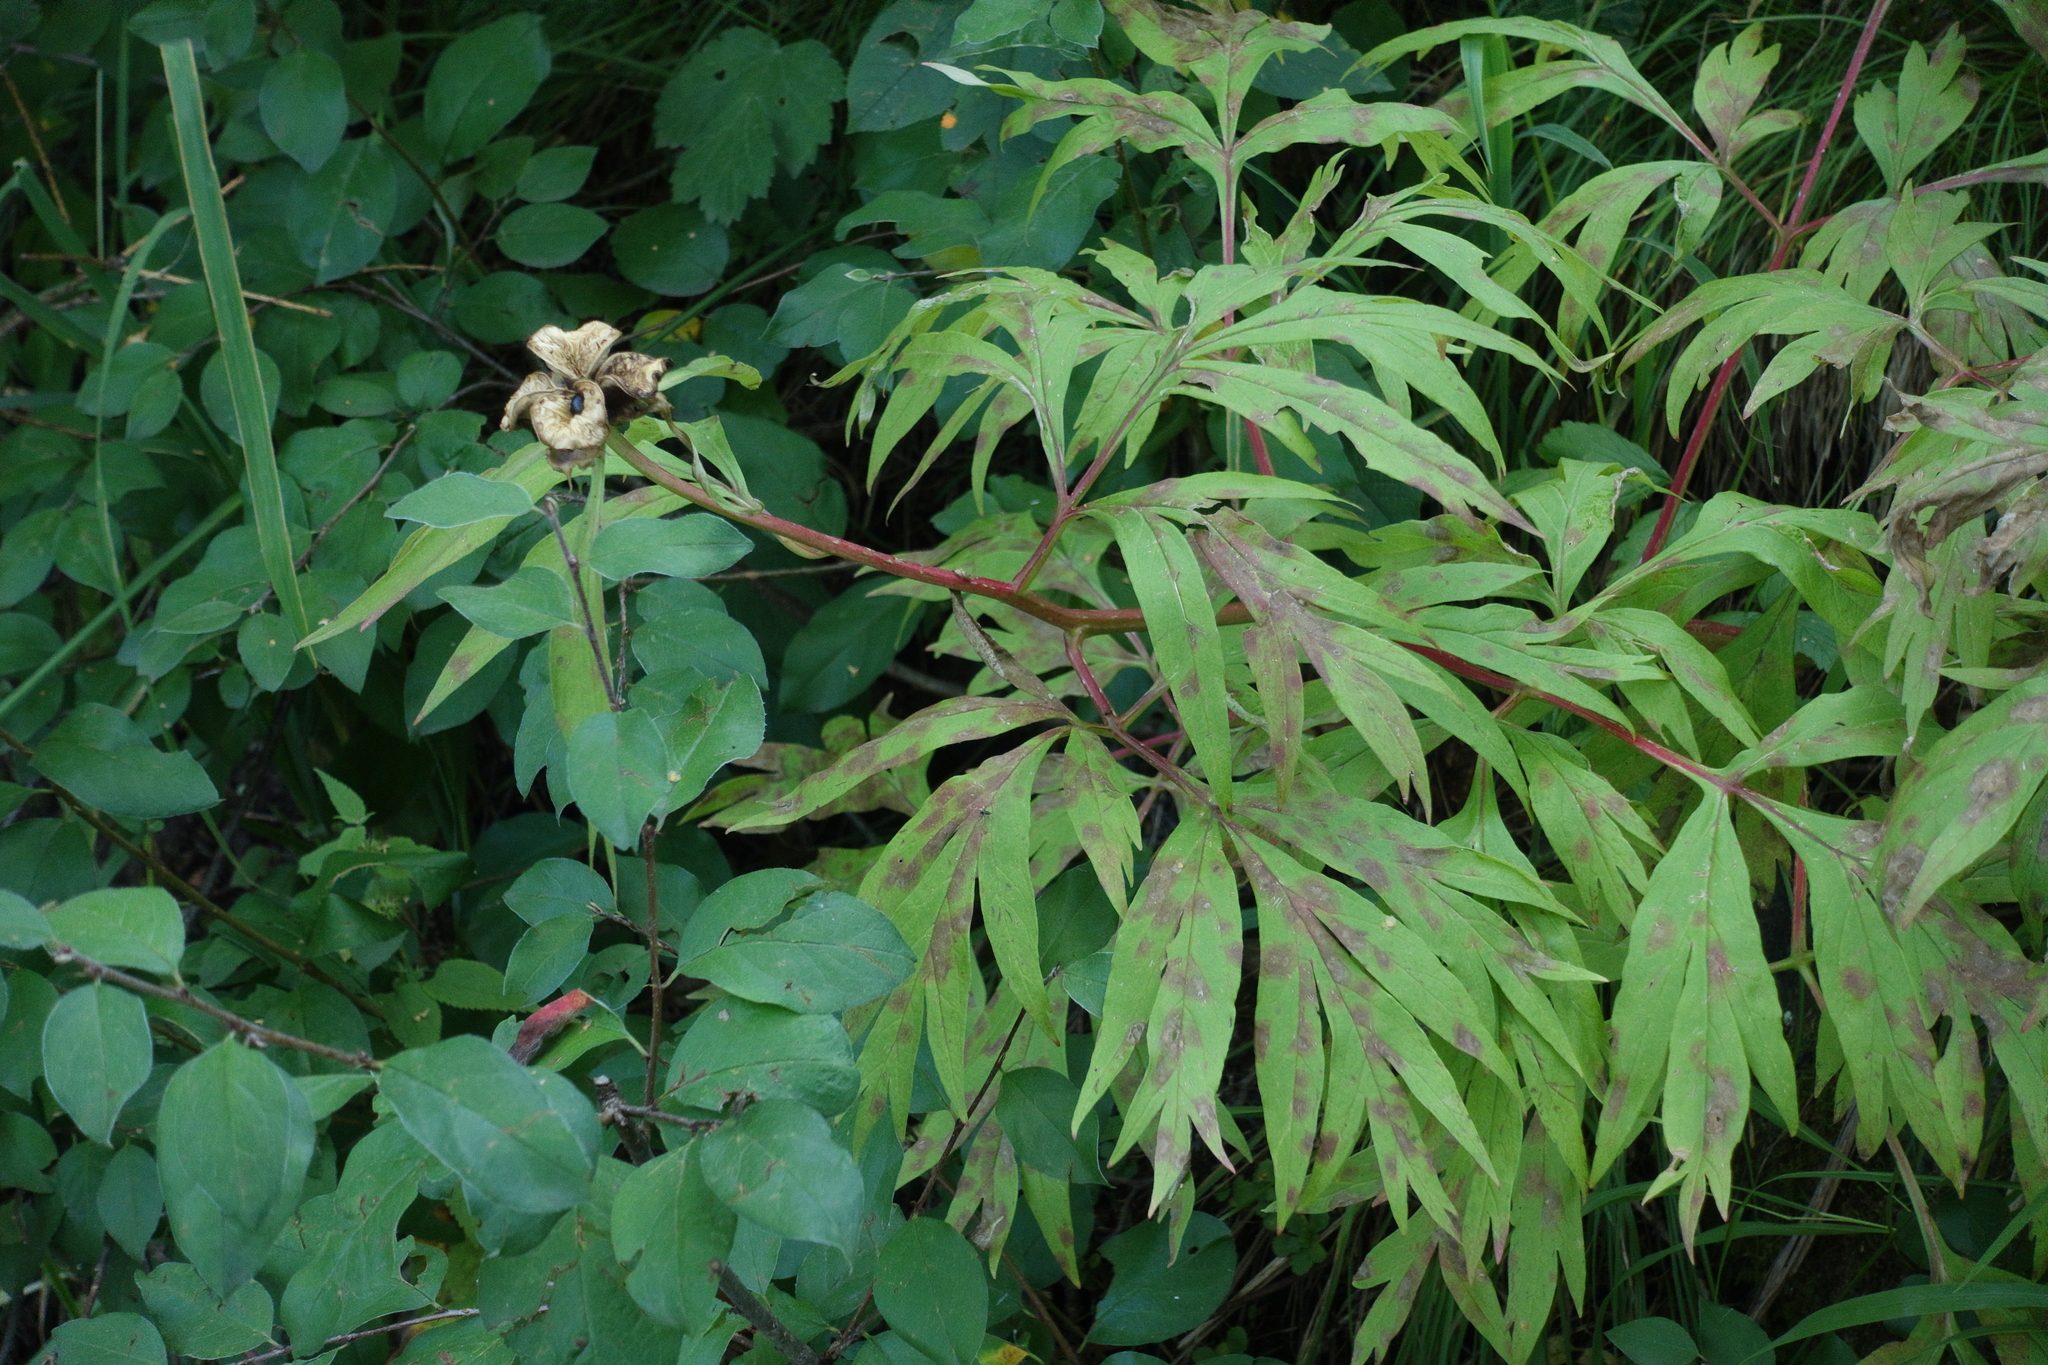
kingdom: Plantae
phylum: Tracheophyta
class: Magnoliopsida
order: Saxifragales
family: Paeoniaceae
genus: Paeonia
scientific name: Paeonia anomala
